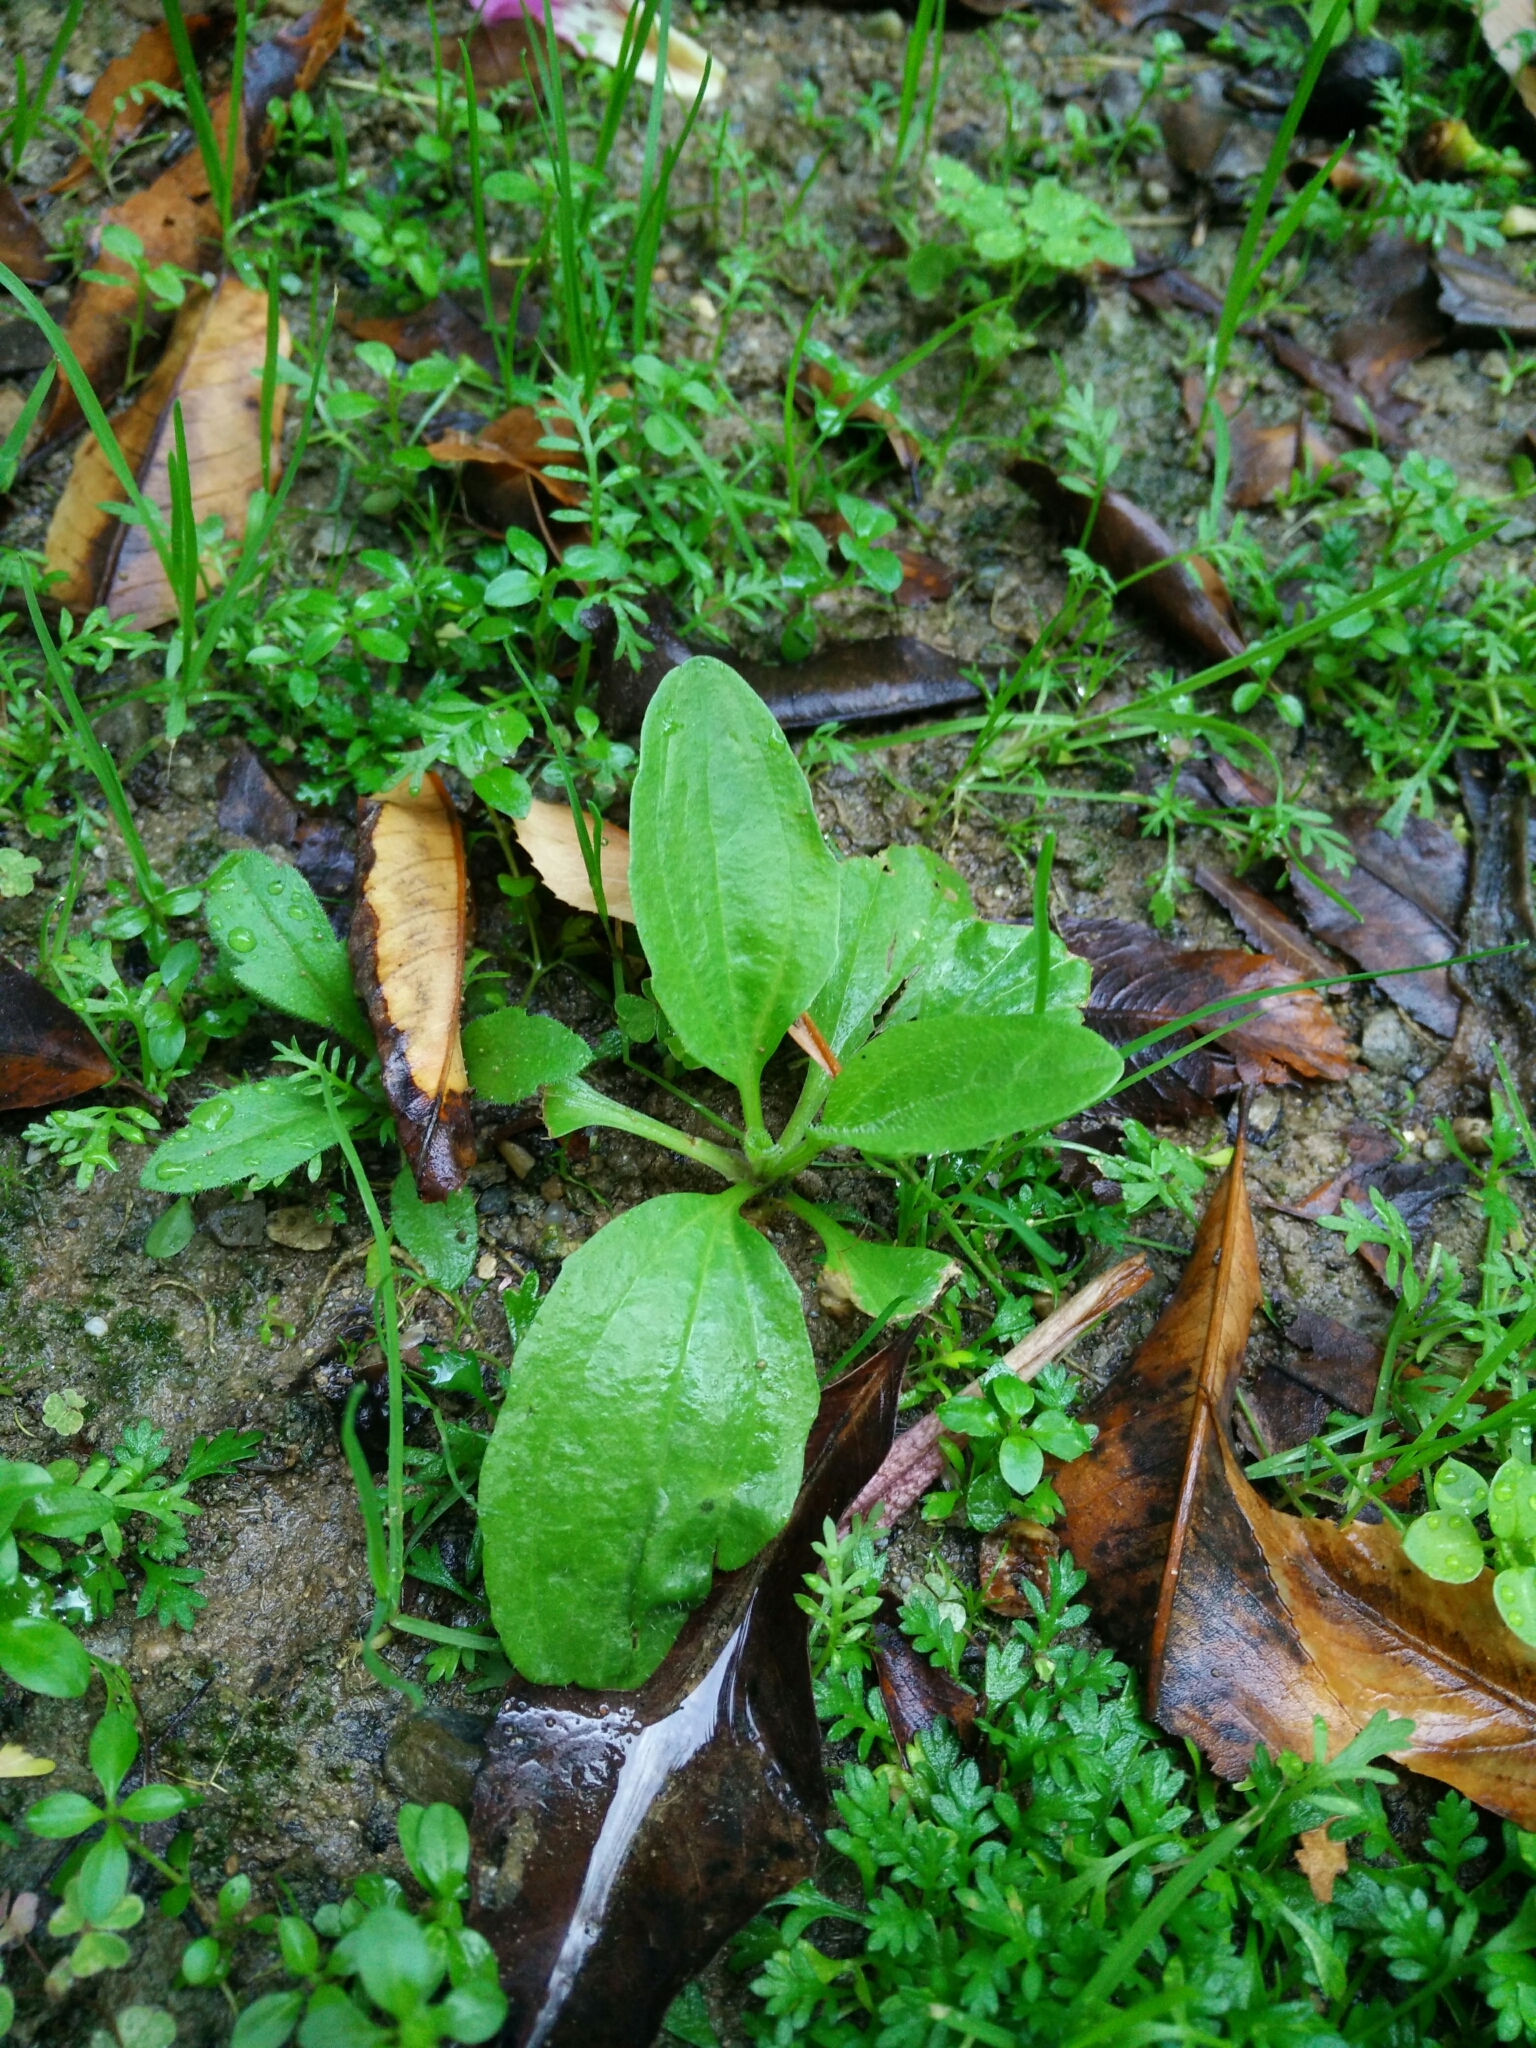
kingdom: Plantae
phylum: Tracheophyta
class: Magnoliopsida
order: Lamiales
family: Plantaginaceae
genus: Plantago
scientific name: Plantago major
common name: Common plantain
